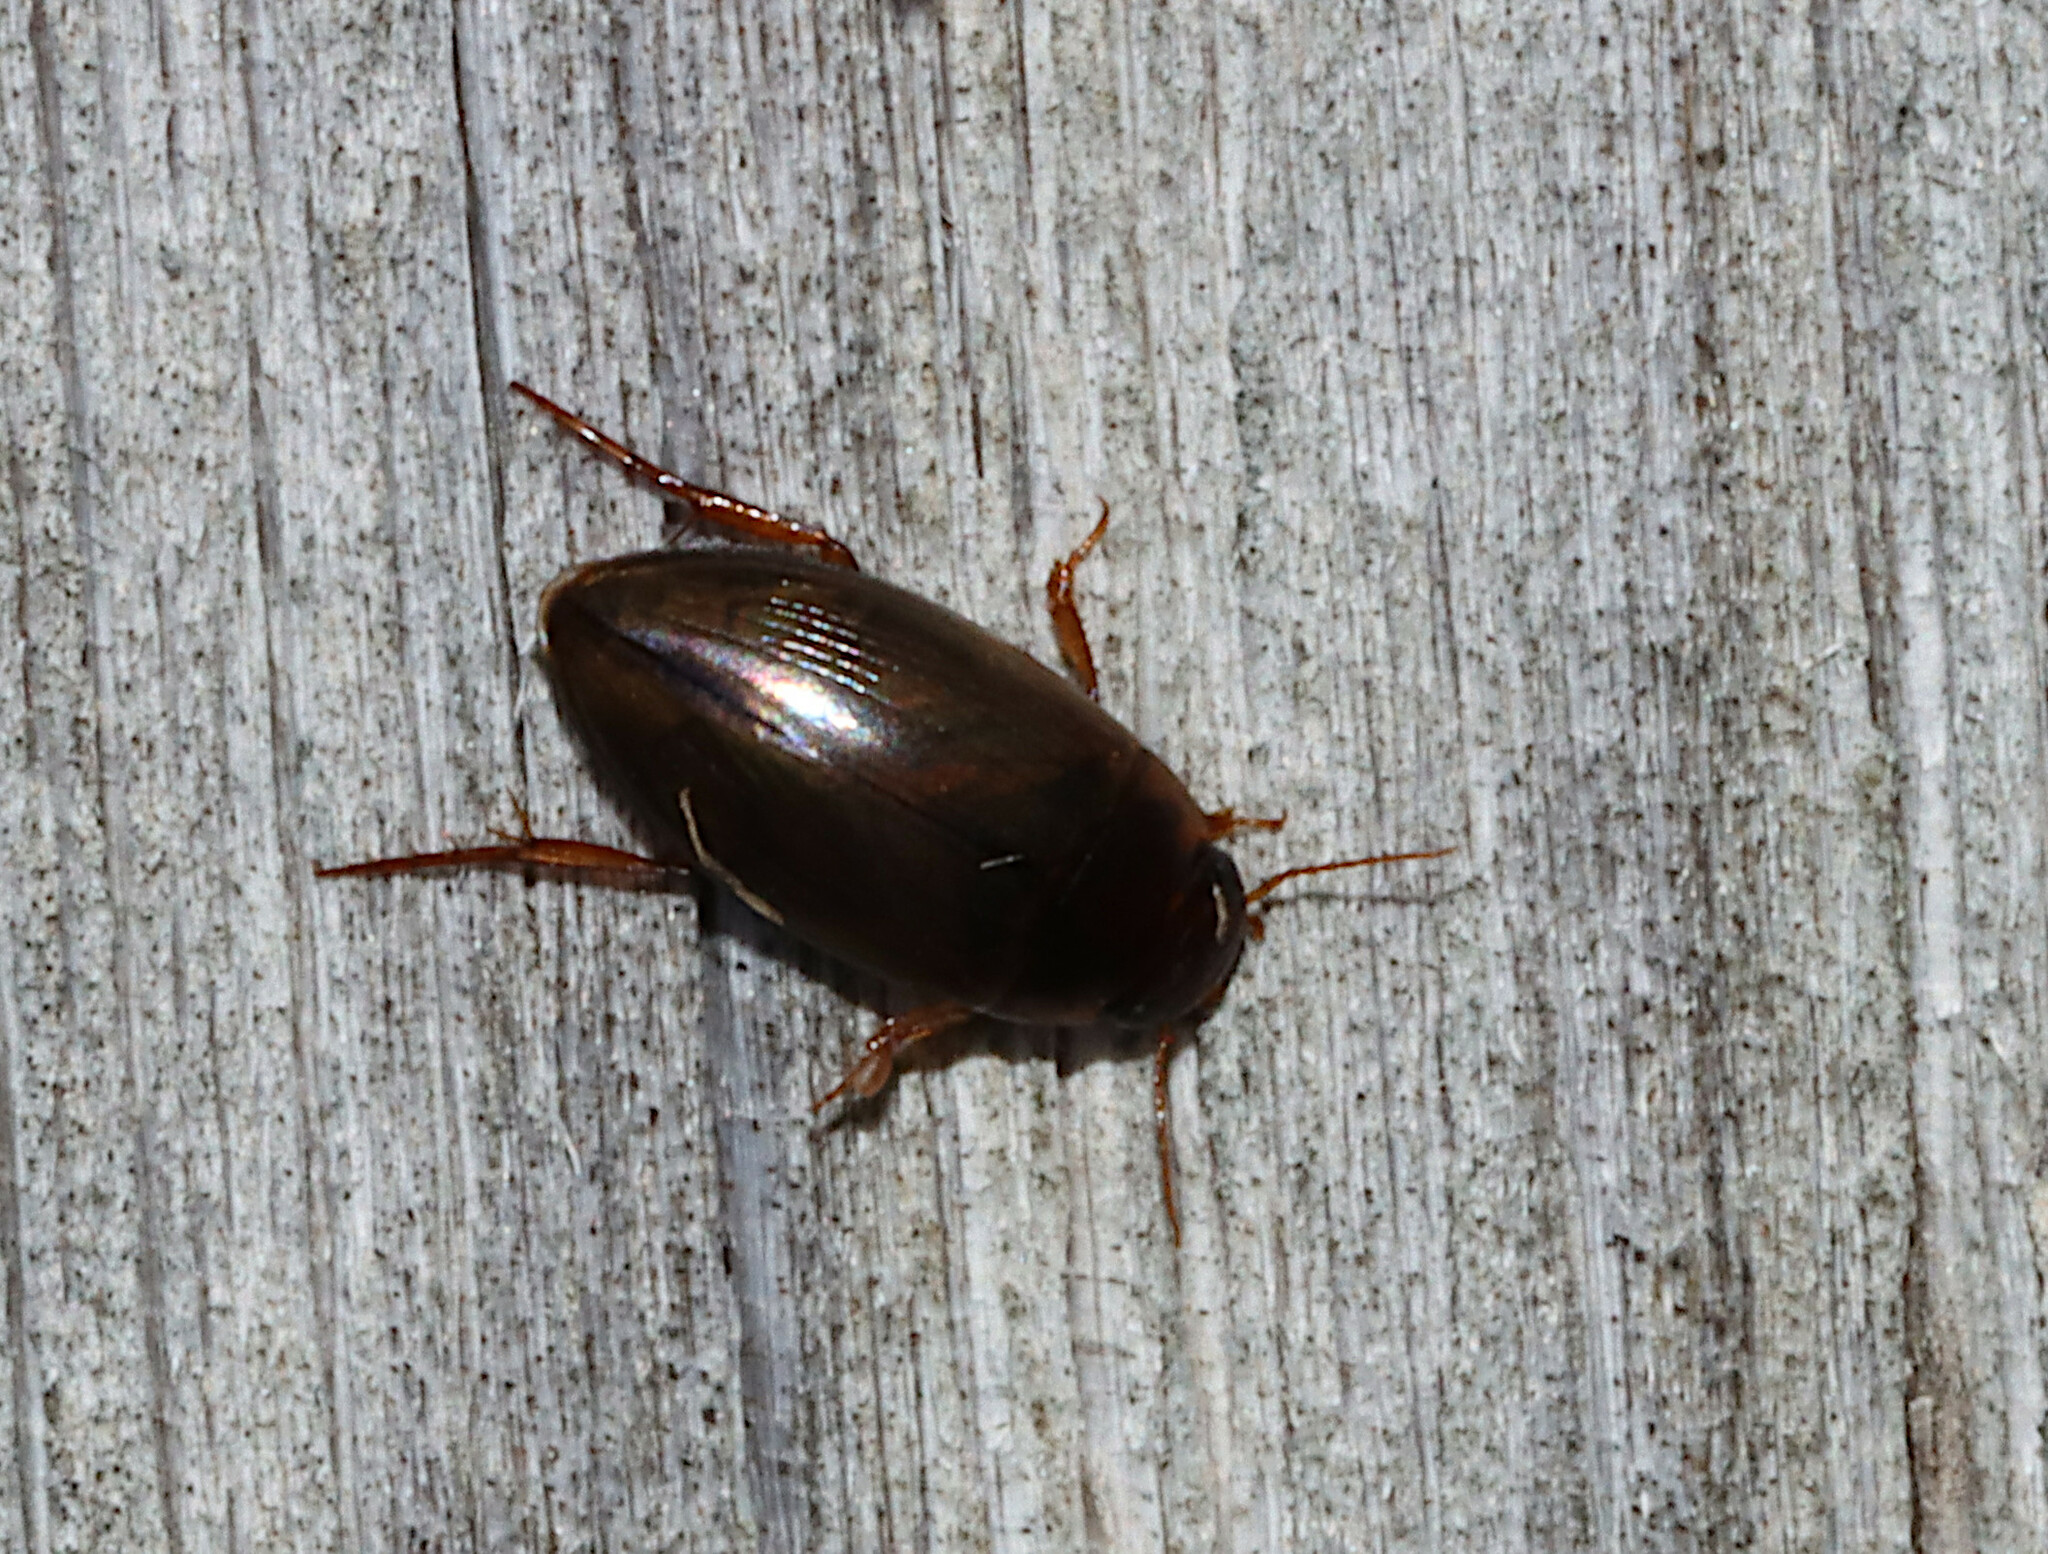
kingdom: Animalia
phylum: Arthropoda
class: Insecta
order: Coleoptera
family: Dytiscidae
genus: Copelatus
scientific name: Copelatus chevrolati
